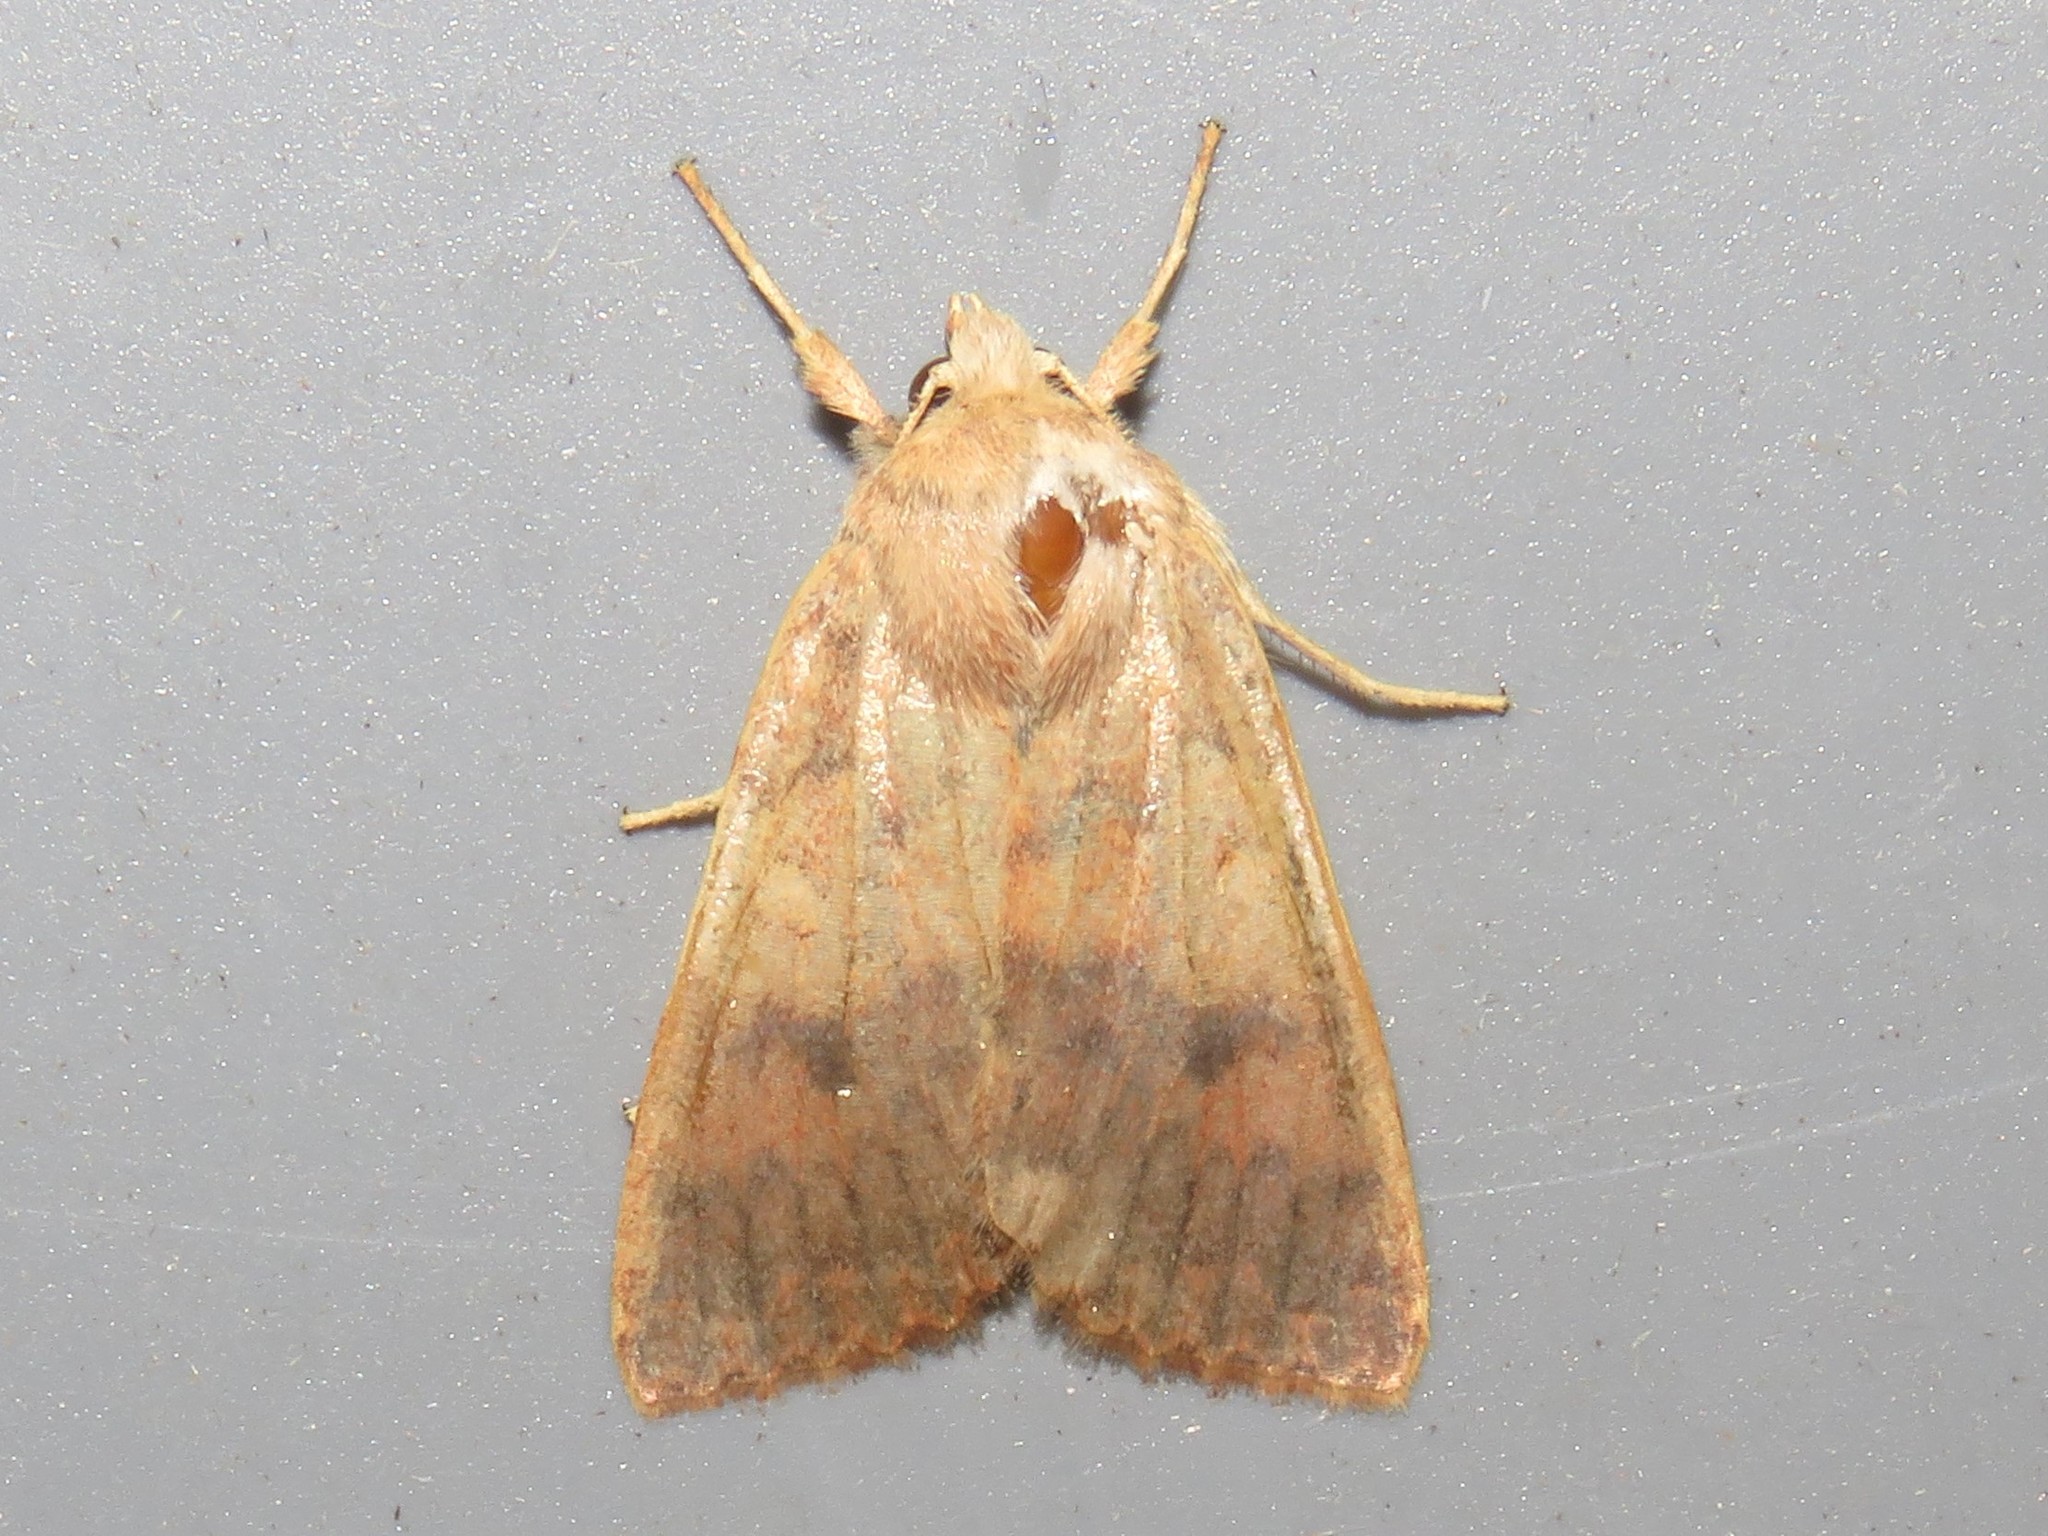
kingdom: Animalia
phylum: Arthropoda
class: Insecta
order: Lepidoptera
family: Noctuidae
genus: Agrochola
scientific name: Agrochola bicolorago
